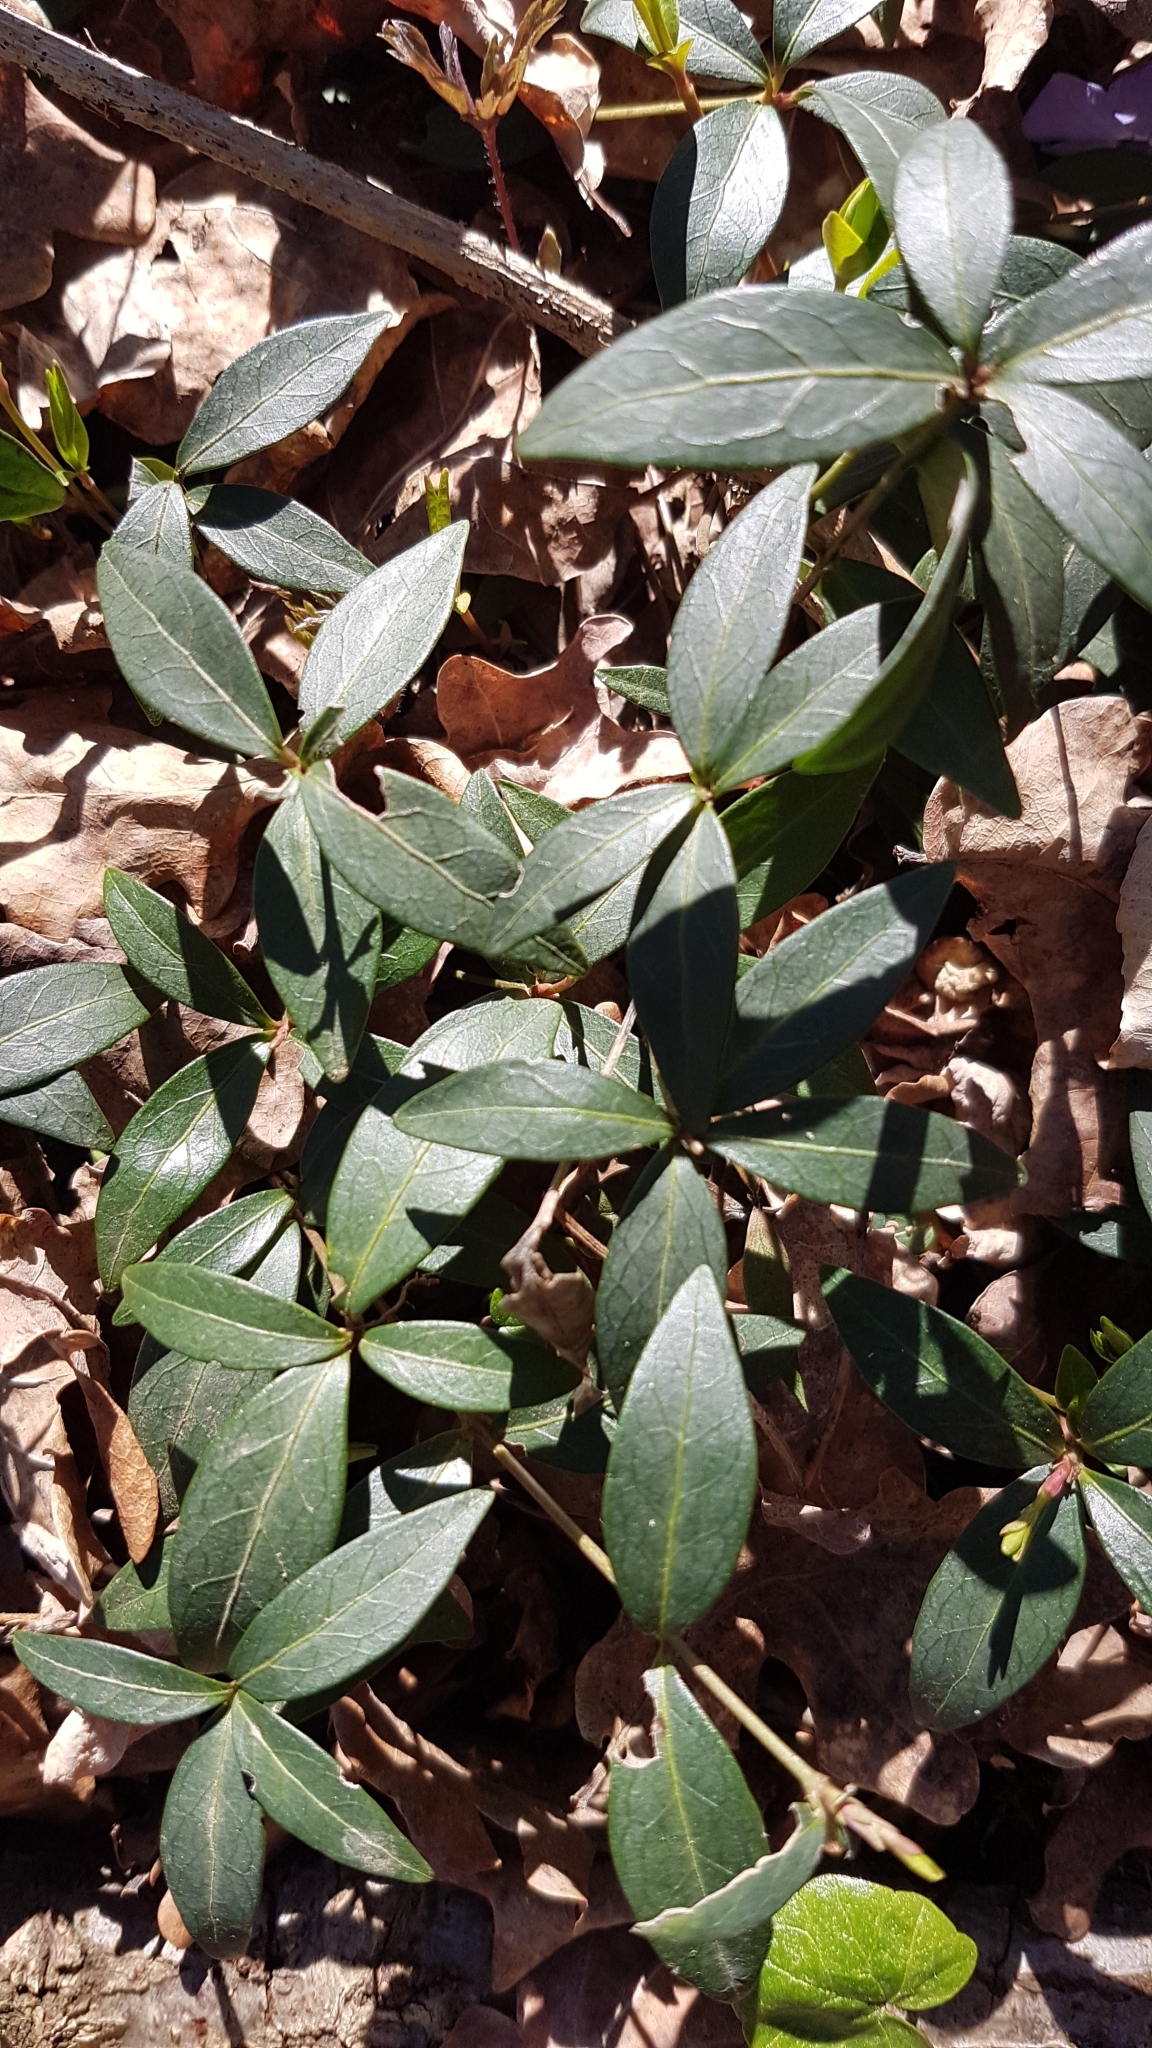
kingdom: Plantae
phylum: Tracheophyta
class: Magnoliopsida
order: Gentianales
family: Apocynaceae
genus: Vinca
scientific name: Vinca minor
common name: Lesser periwinkle
